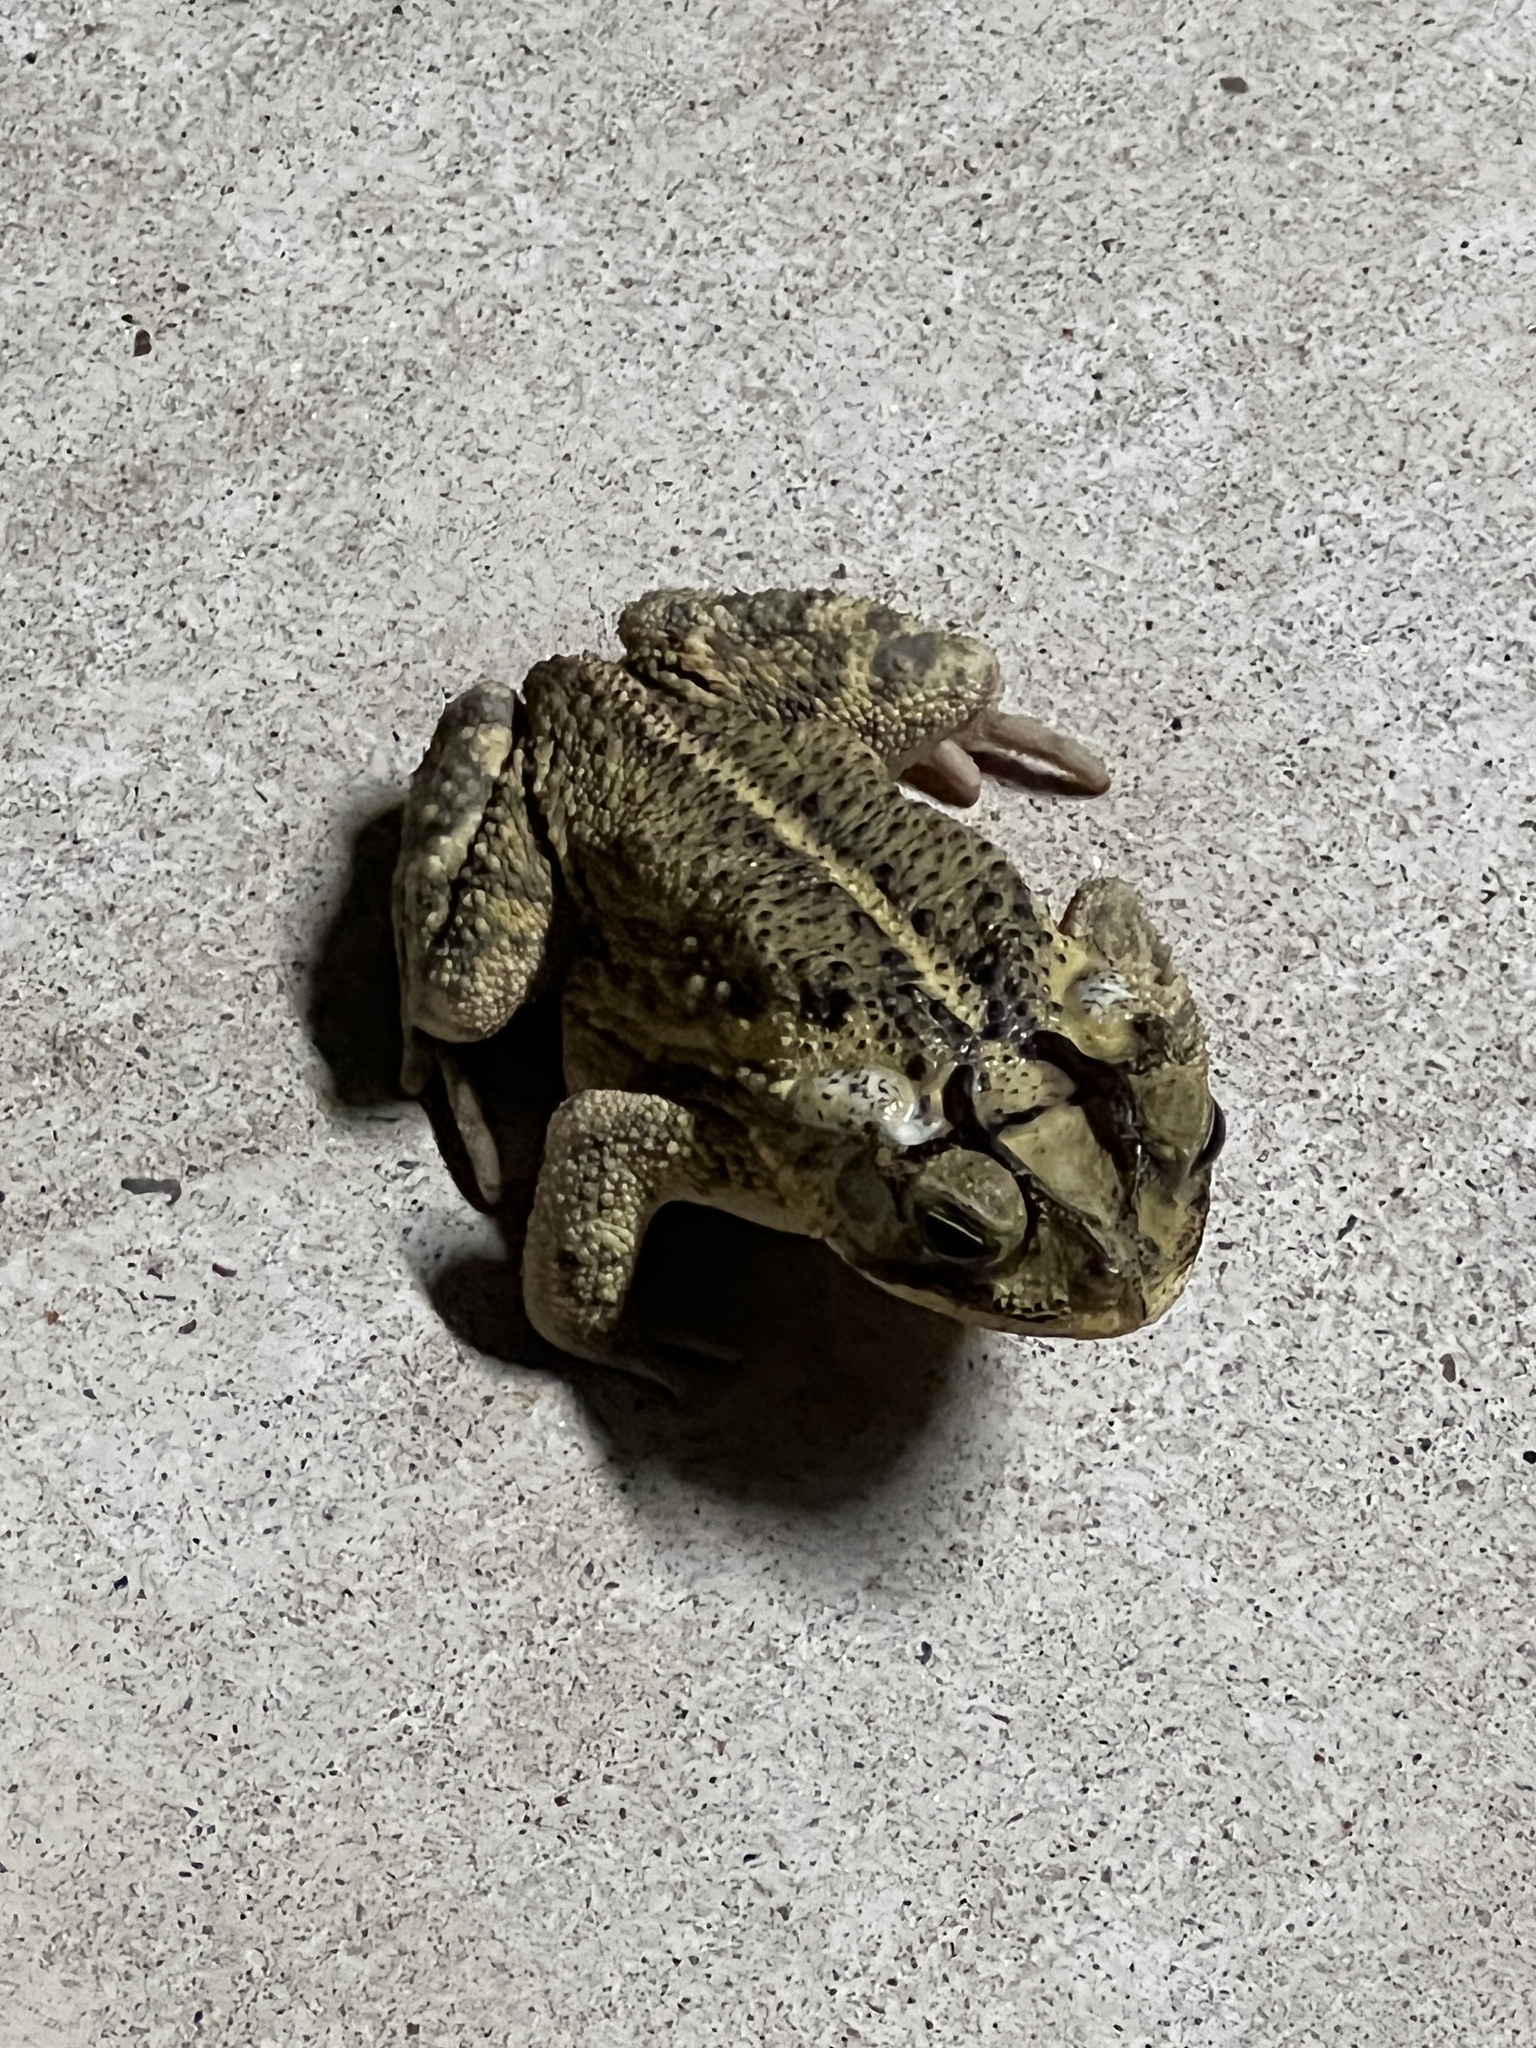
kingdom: Animalia
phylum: Chordata
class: Amphibia
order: Anura
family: Bufonidae
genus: Incilius
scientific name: Incilius nebulifer
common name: Gulf coast toad
